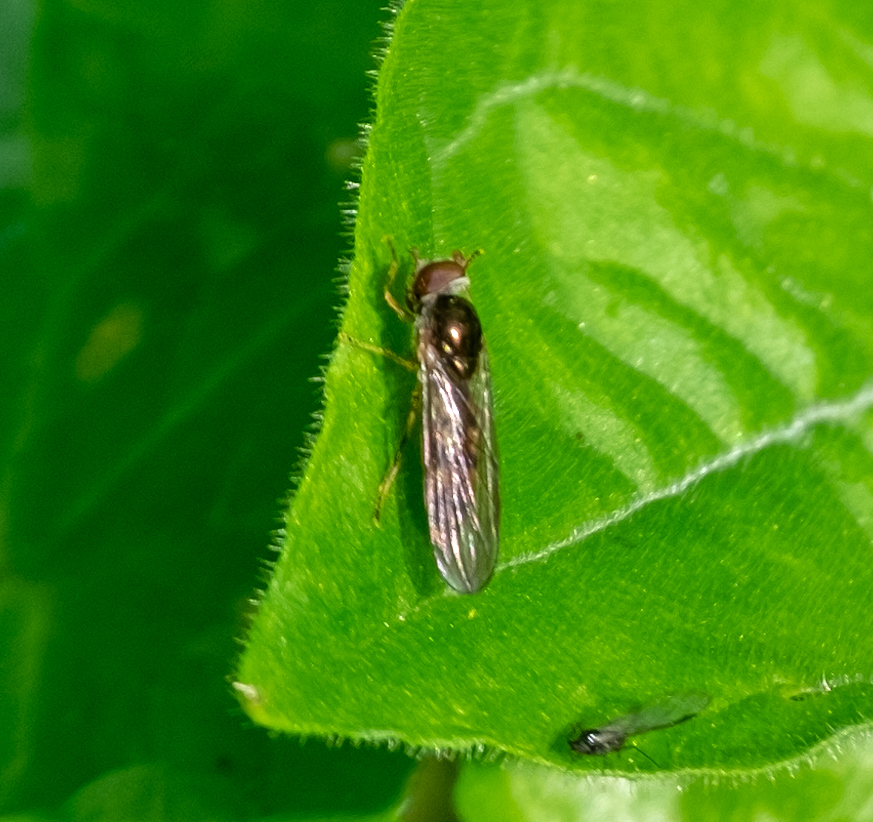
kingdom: Animalia
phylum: Arthropoda
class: Insecta
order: Diptera
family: Syrphidae
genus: Melanostoma
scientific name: Melanostoma scalare
